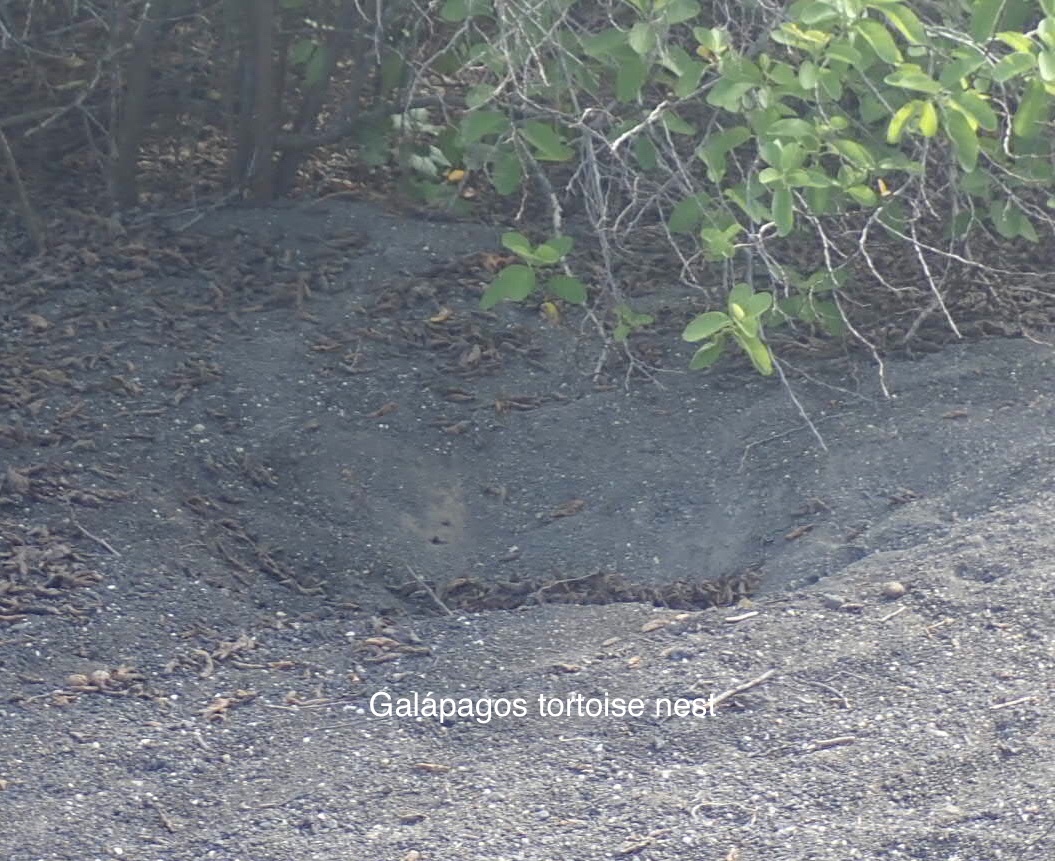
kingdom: Animalia
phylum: Chordata
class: Testudines
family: Testudinidae
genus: Chelonoidis
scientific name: Chelonoidis vandenburghi
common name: Alcedo volcano giant tortoise
